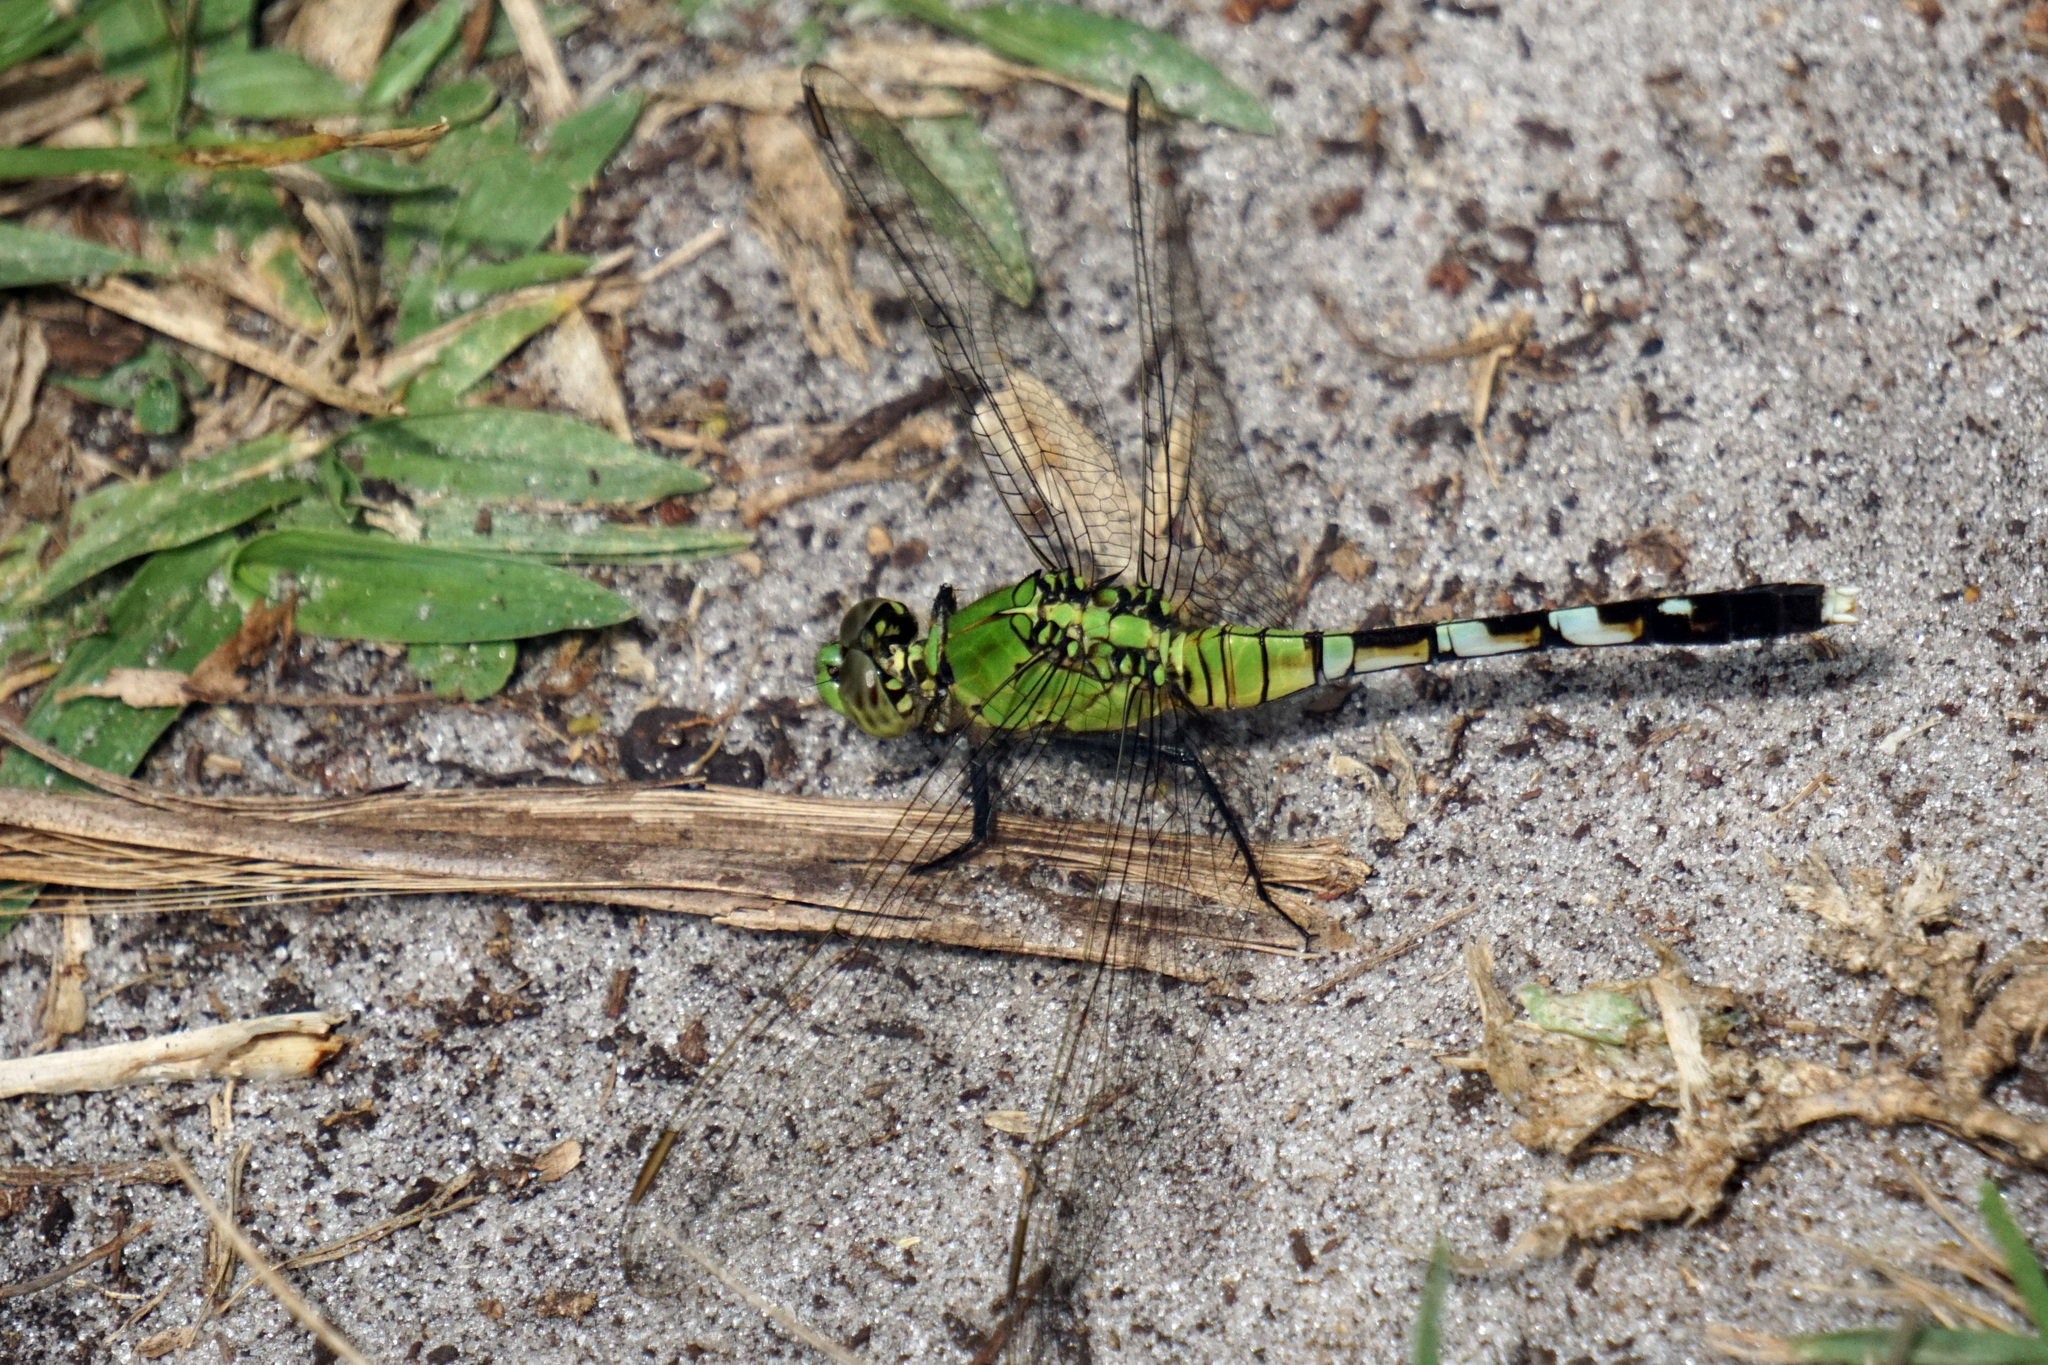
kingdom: Animalia
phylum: Arthropoda
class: Insecta
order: Odonata
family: Libellulidae
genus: Erythemis
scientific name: Erythemis simplicicollis
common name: Eastern pondhawk
